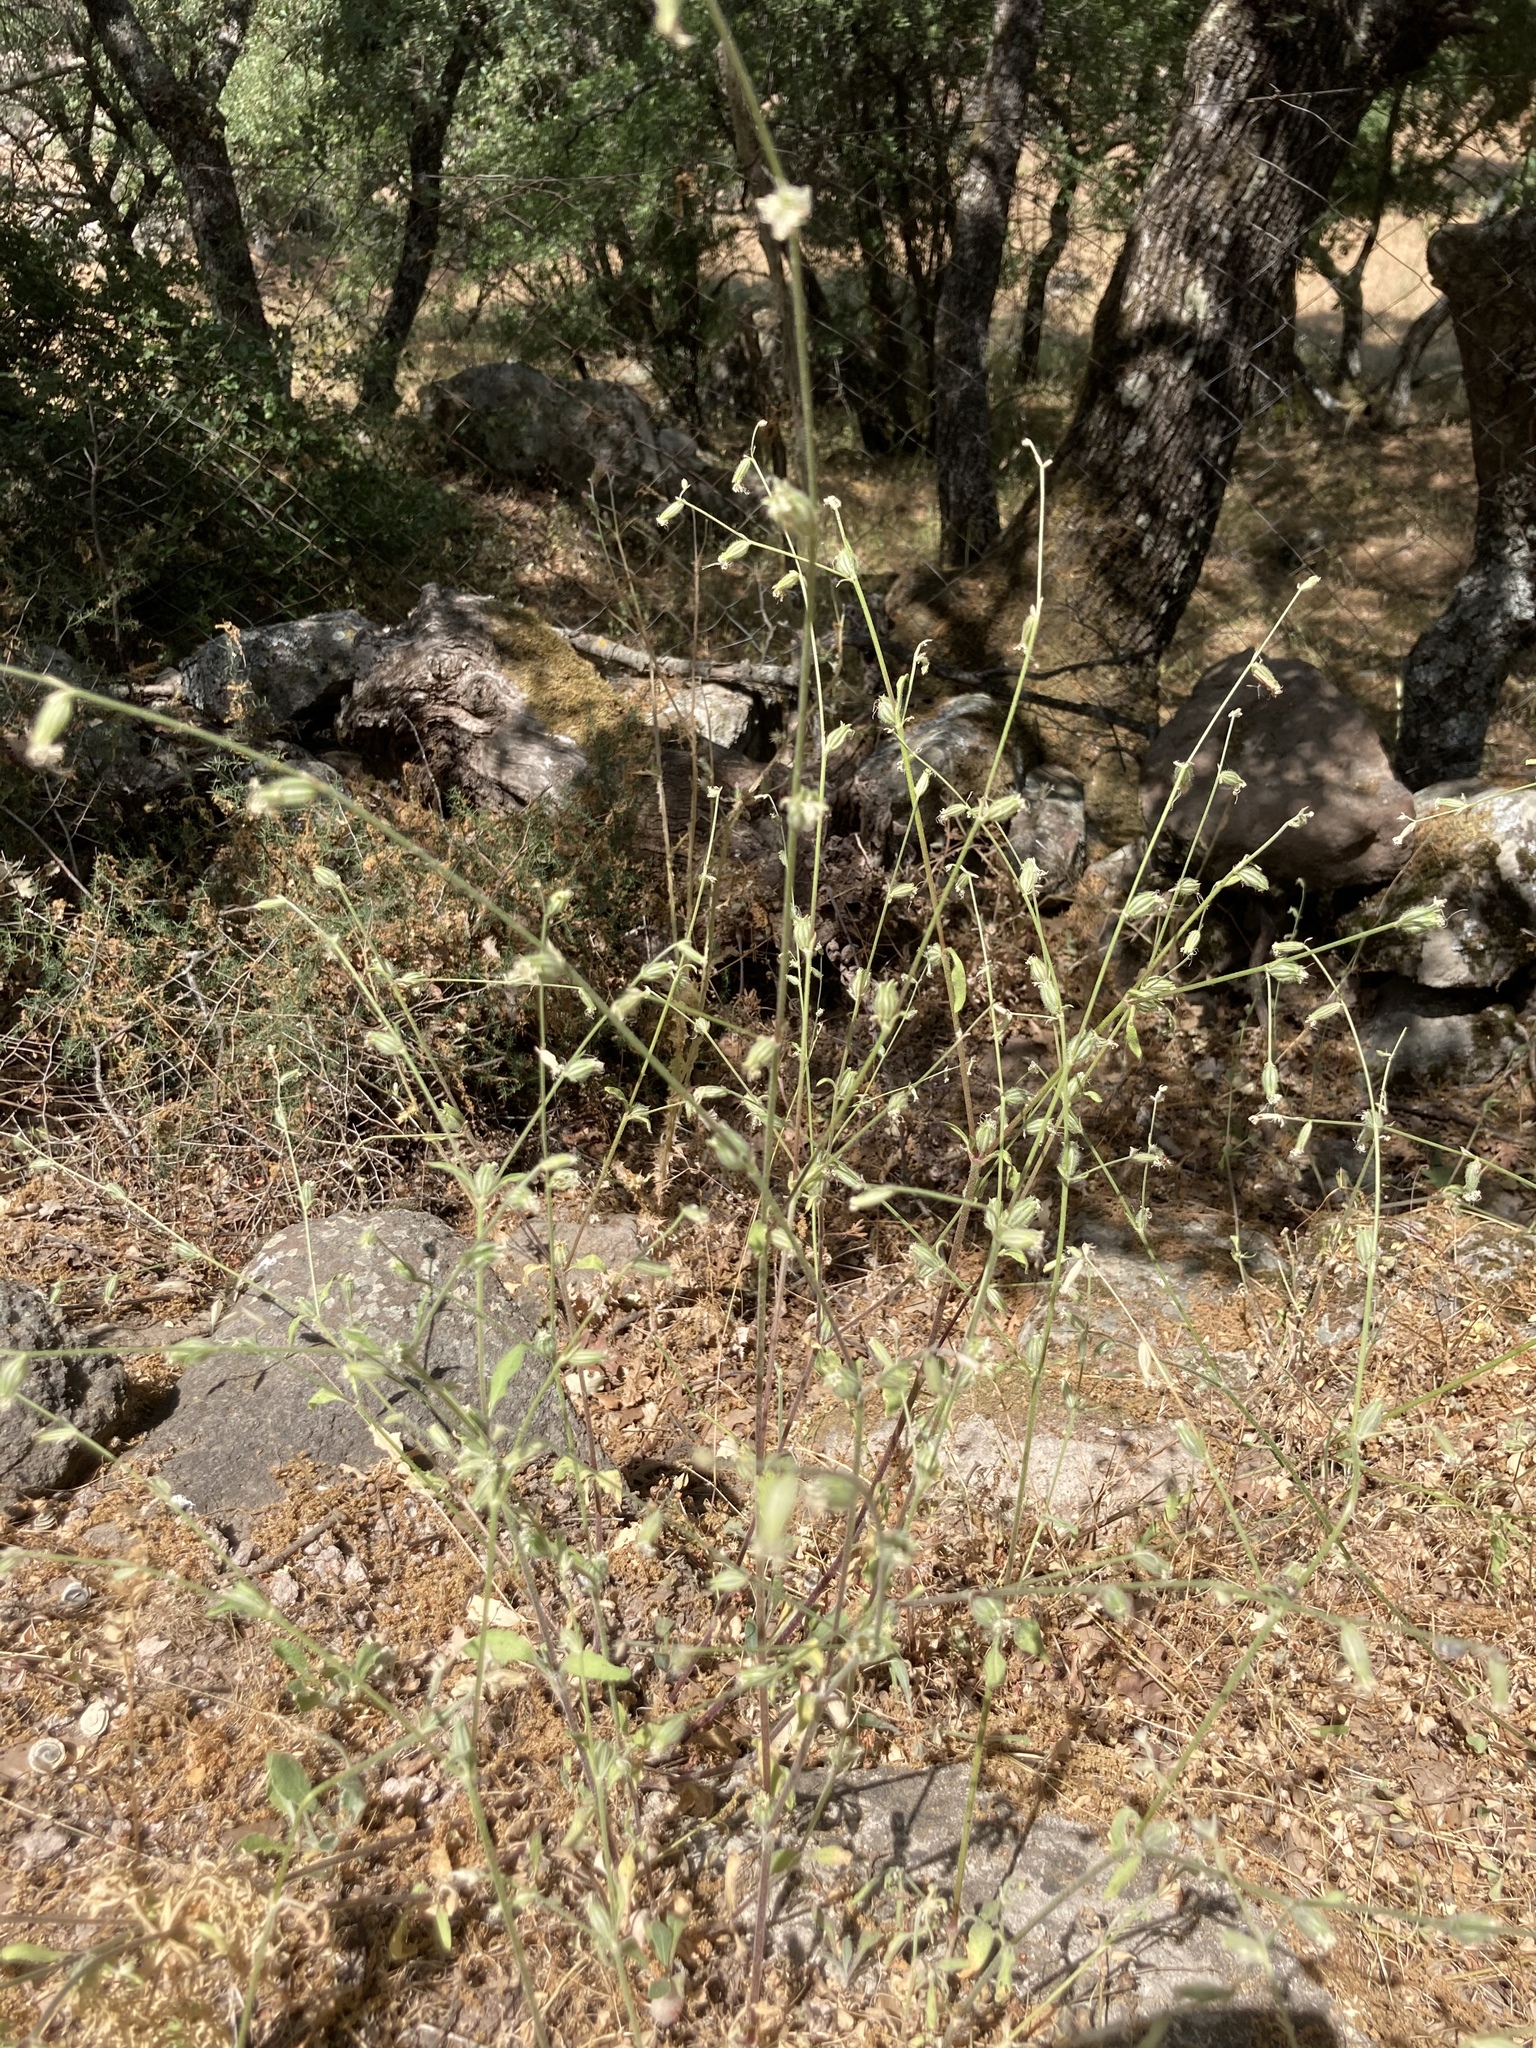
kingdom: Plantae
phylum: Tracheophyta
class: Magnoliopsida
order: Caryophyllales
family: Caryophyllaceae
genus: Silene
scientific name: Silene dichotoma
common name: Forked catchfly
